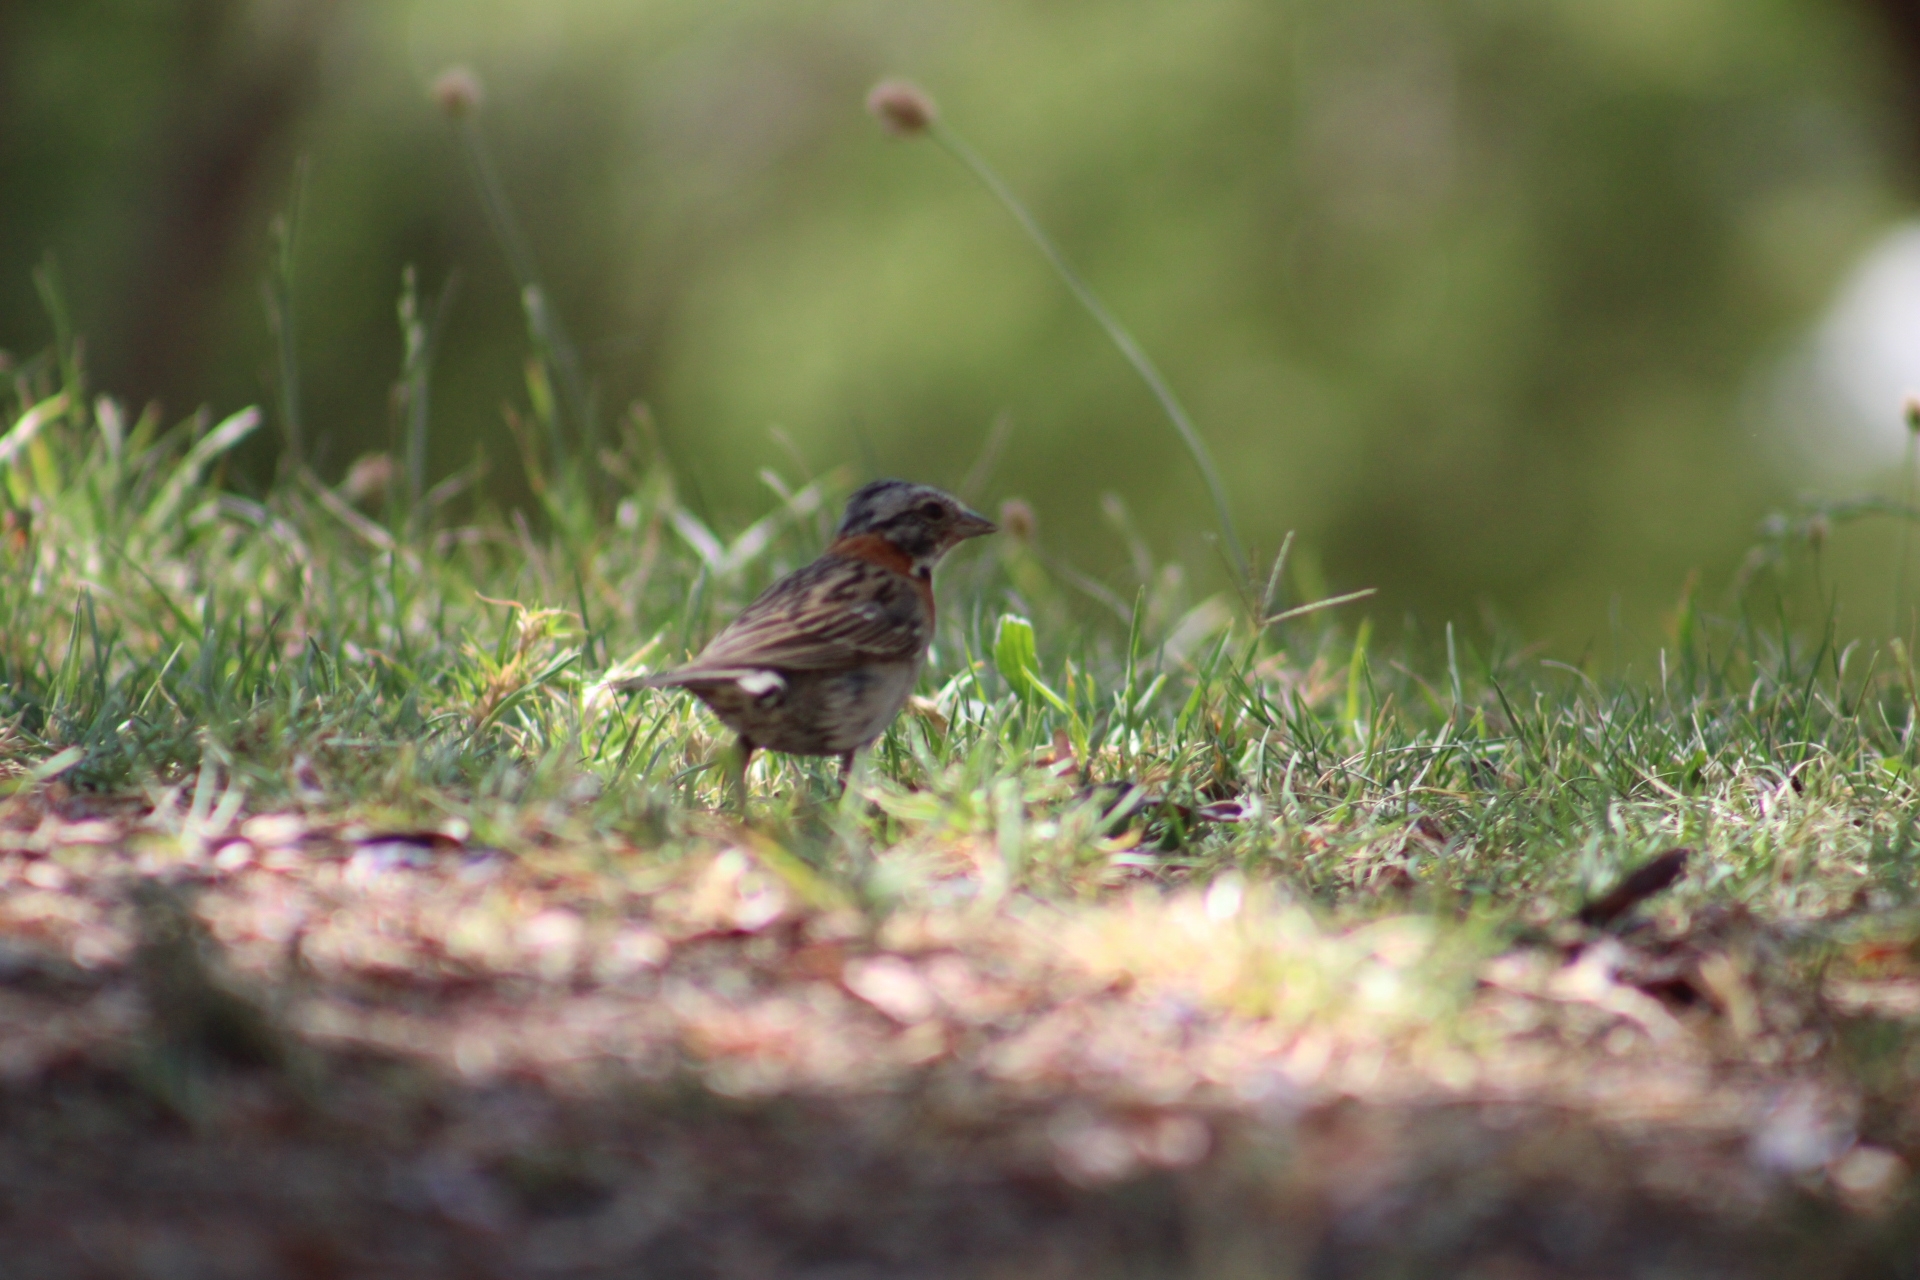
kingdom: Animalia
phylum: Chordata
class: Aves
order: Passeriformes
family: Passerellidae
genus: Zonotrichia
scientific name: Zonotrichia capensis
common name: Rufous-collared sparrow
